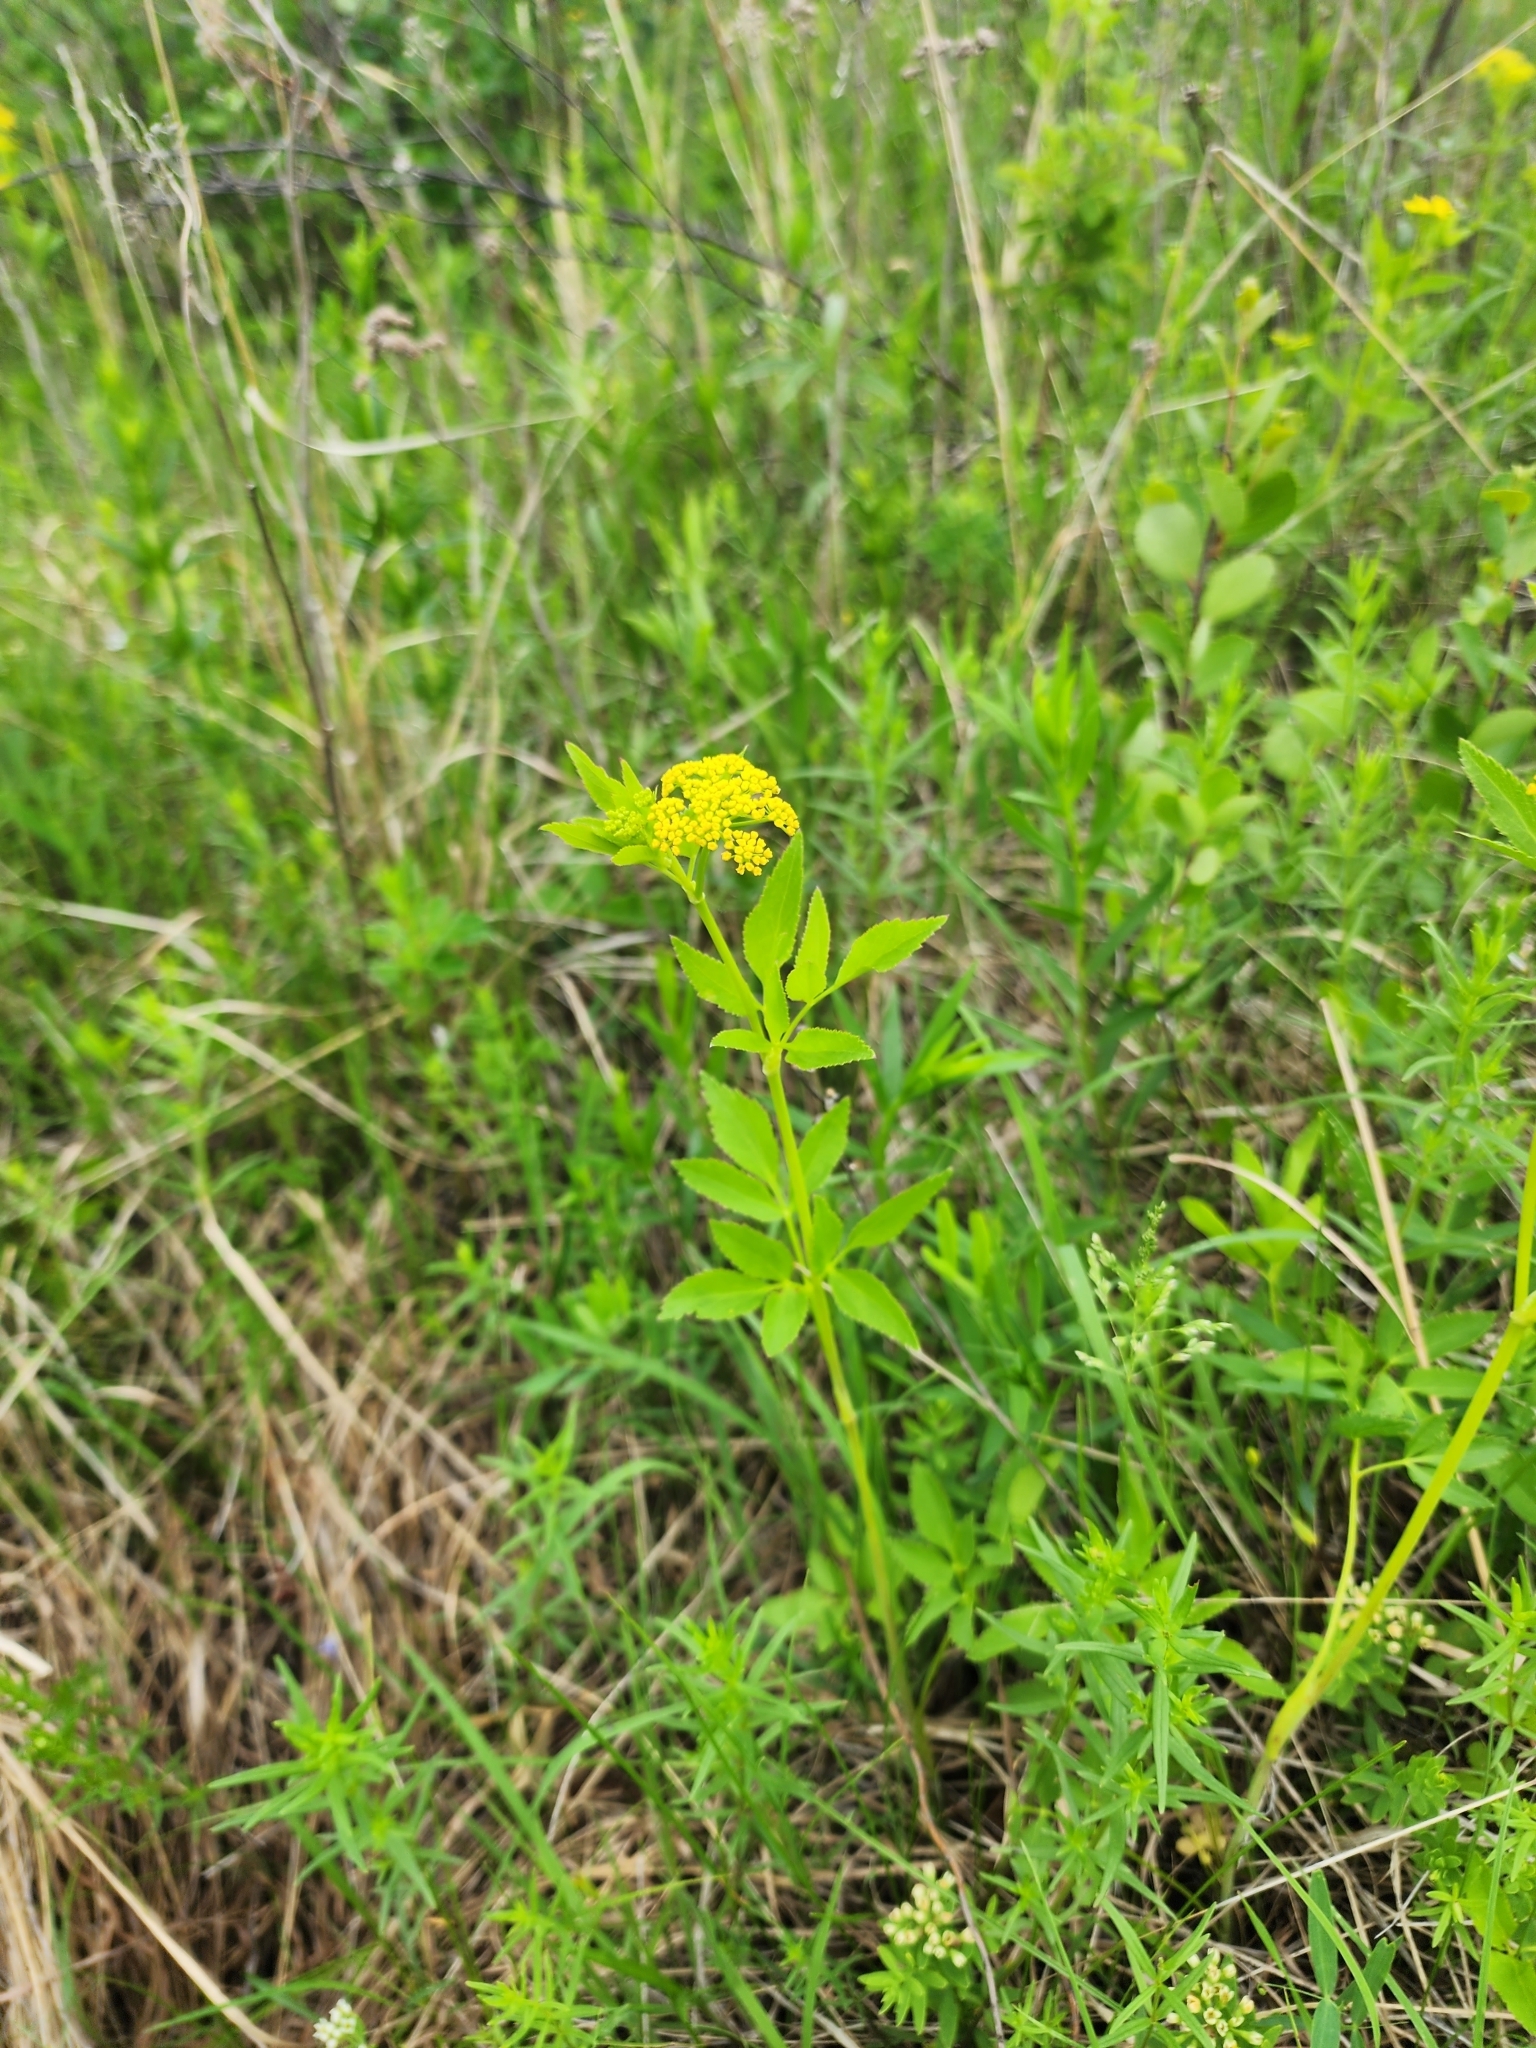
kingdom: Plantae
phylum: Tracheophyta
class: Magnoliopsida
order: Apiales
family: Apiaceae
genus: Zizia
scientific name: Zizia aurea
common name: Golden alexanders
